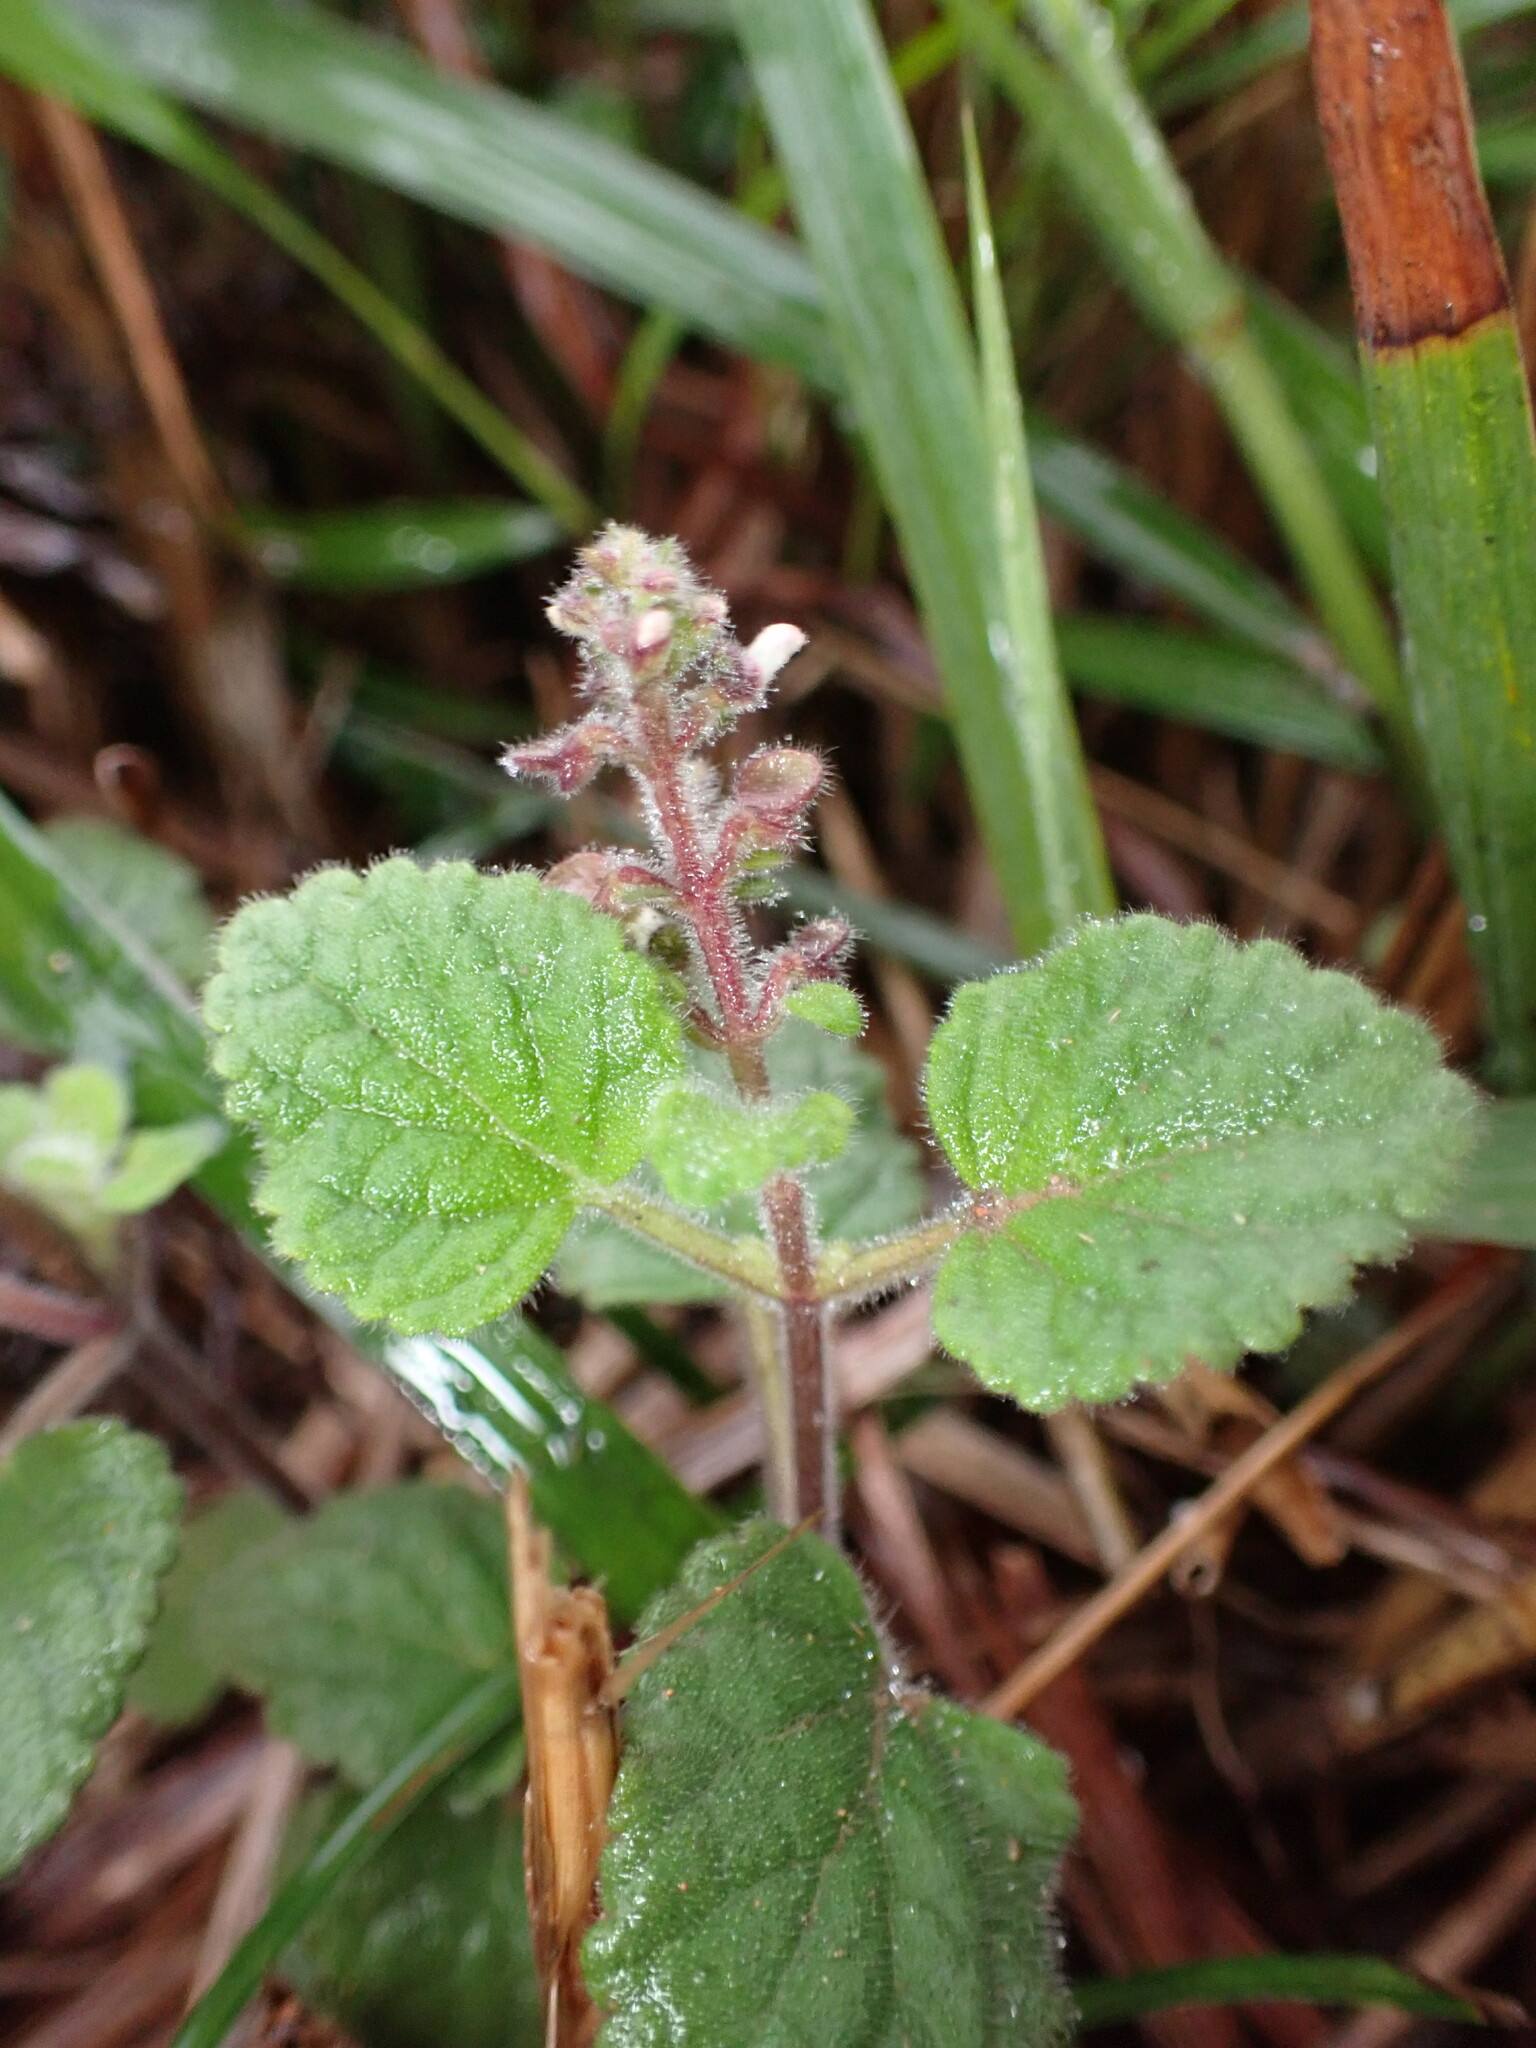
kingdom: Plantae
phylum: Tracheophyta
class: Magnoliopsida
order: Lamiales
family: Lamiaceae
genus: Scutellaria
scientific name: Scutellaria indica
